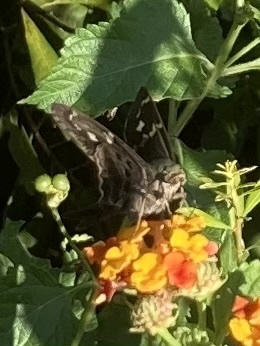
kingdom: Animalia
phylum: Arthropoda
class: Insecta
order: Lepidoptera
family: Hesperiidae
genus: Urbanus
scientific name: Urbanus proteus
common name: Long-tailed skipper
